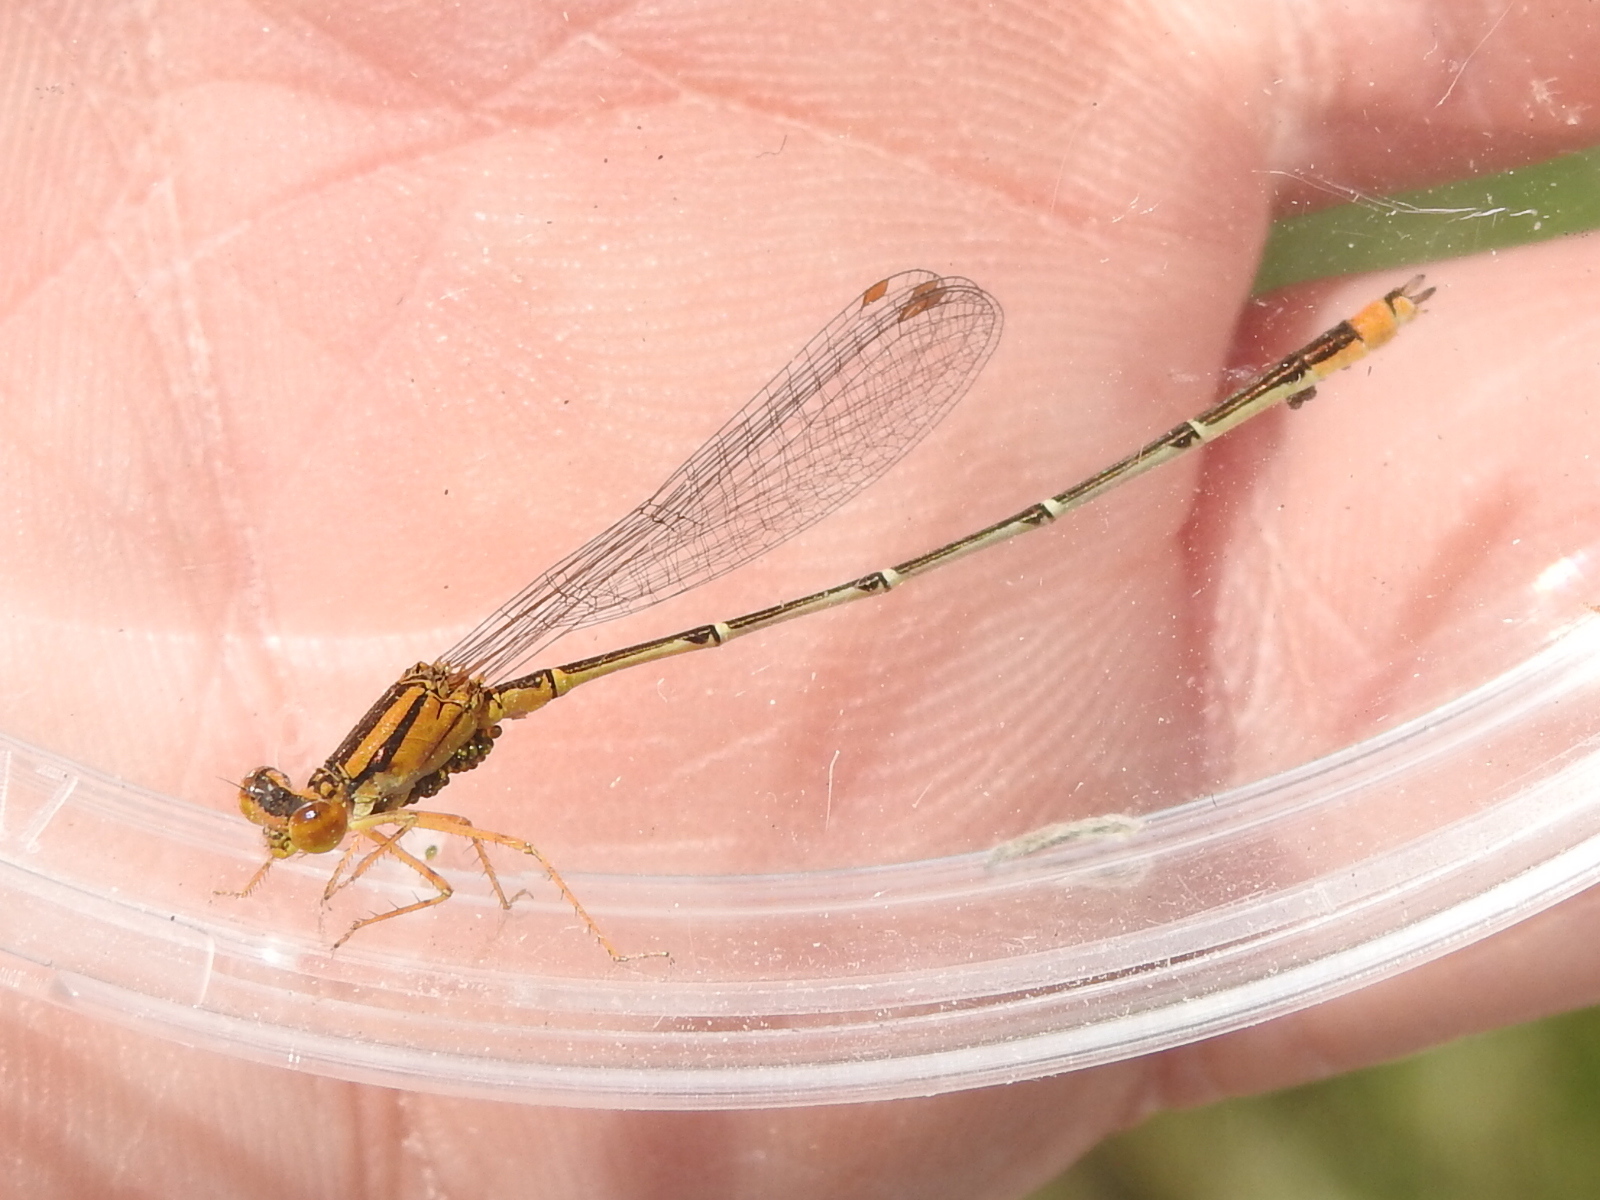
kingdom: Animalia
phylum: Arthropoda
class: Insecta
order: Odonata
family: Coenagrionidae
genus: Enallagma
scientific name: Enallagma signatum
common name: Orange bluet
